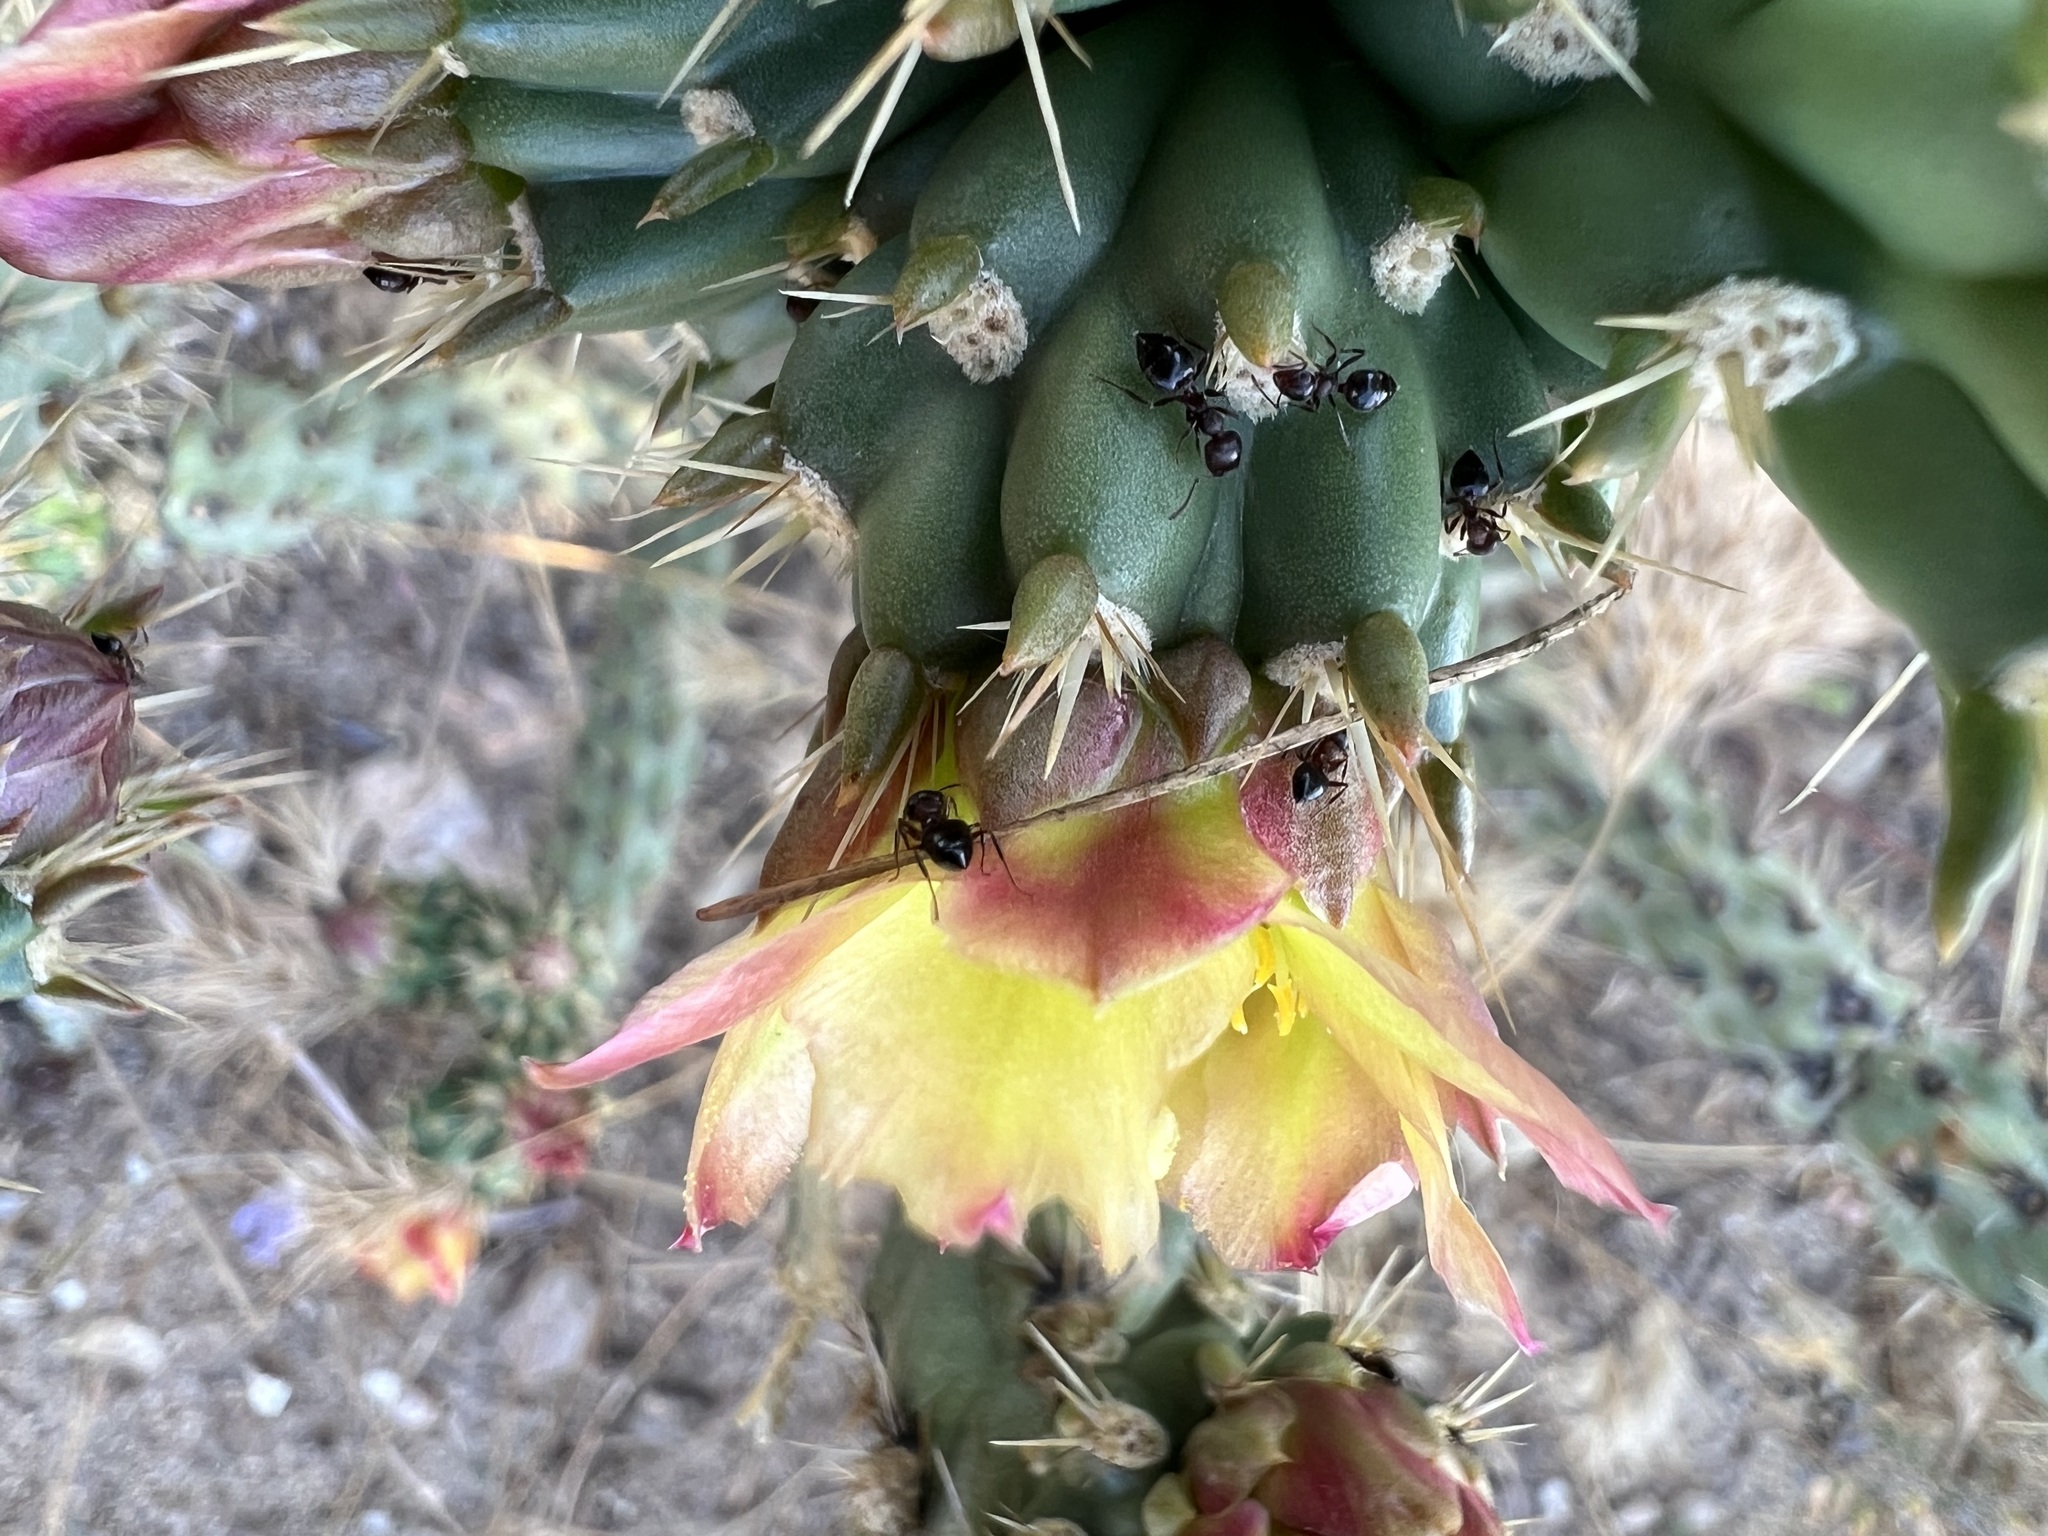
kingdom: Plantae
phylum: Tracheophyta
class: Magnoliopsida
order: Caryophyllales
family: Cactaceae
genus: Cylindropuntia
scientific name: Cylindropuntia bernardina
